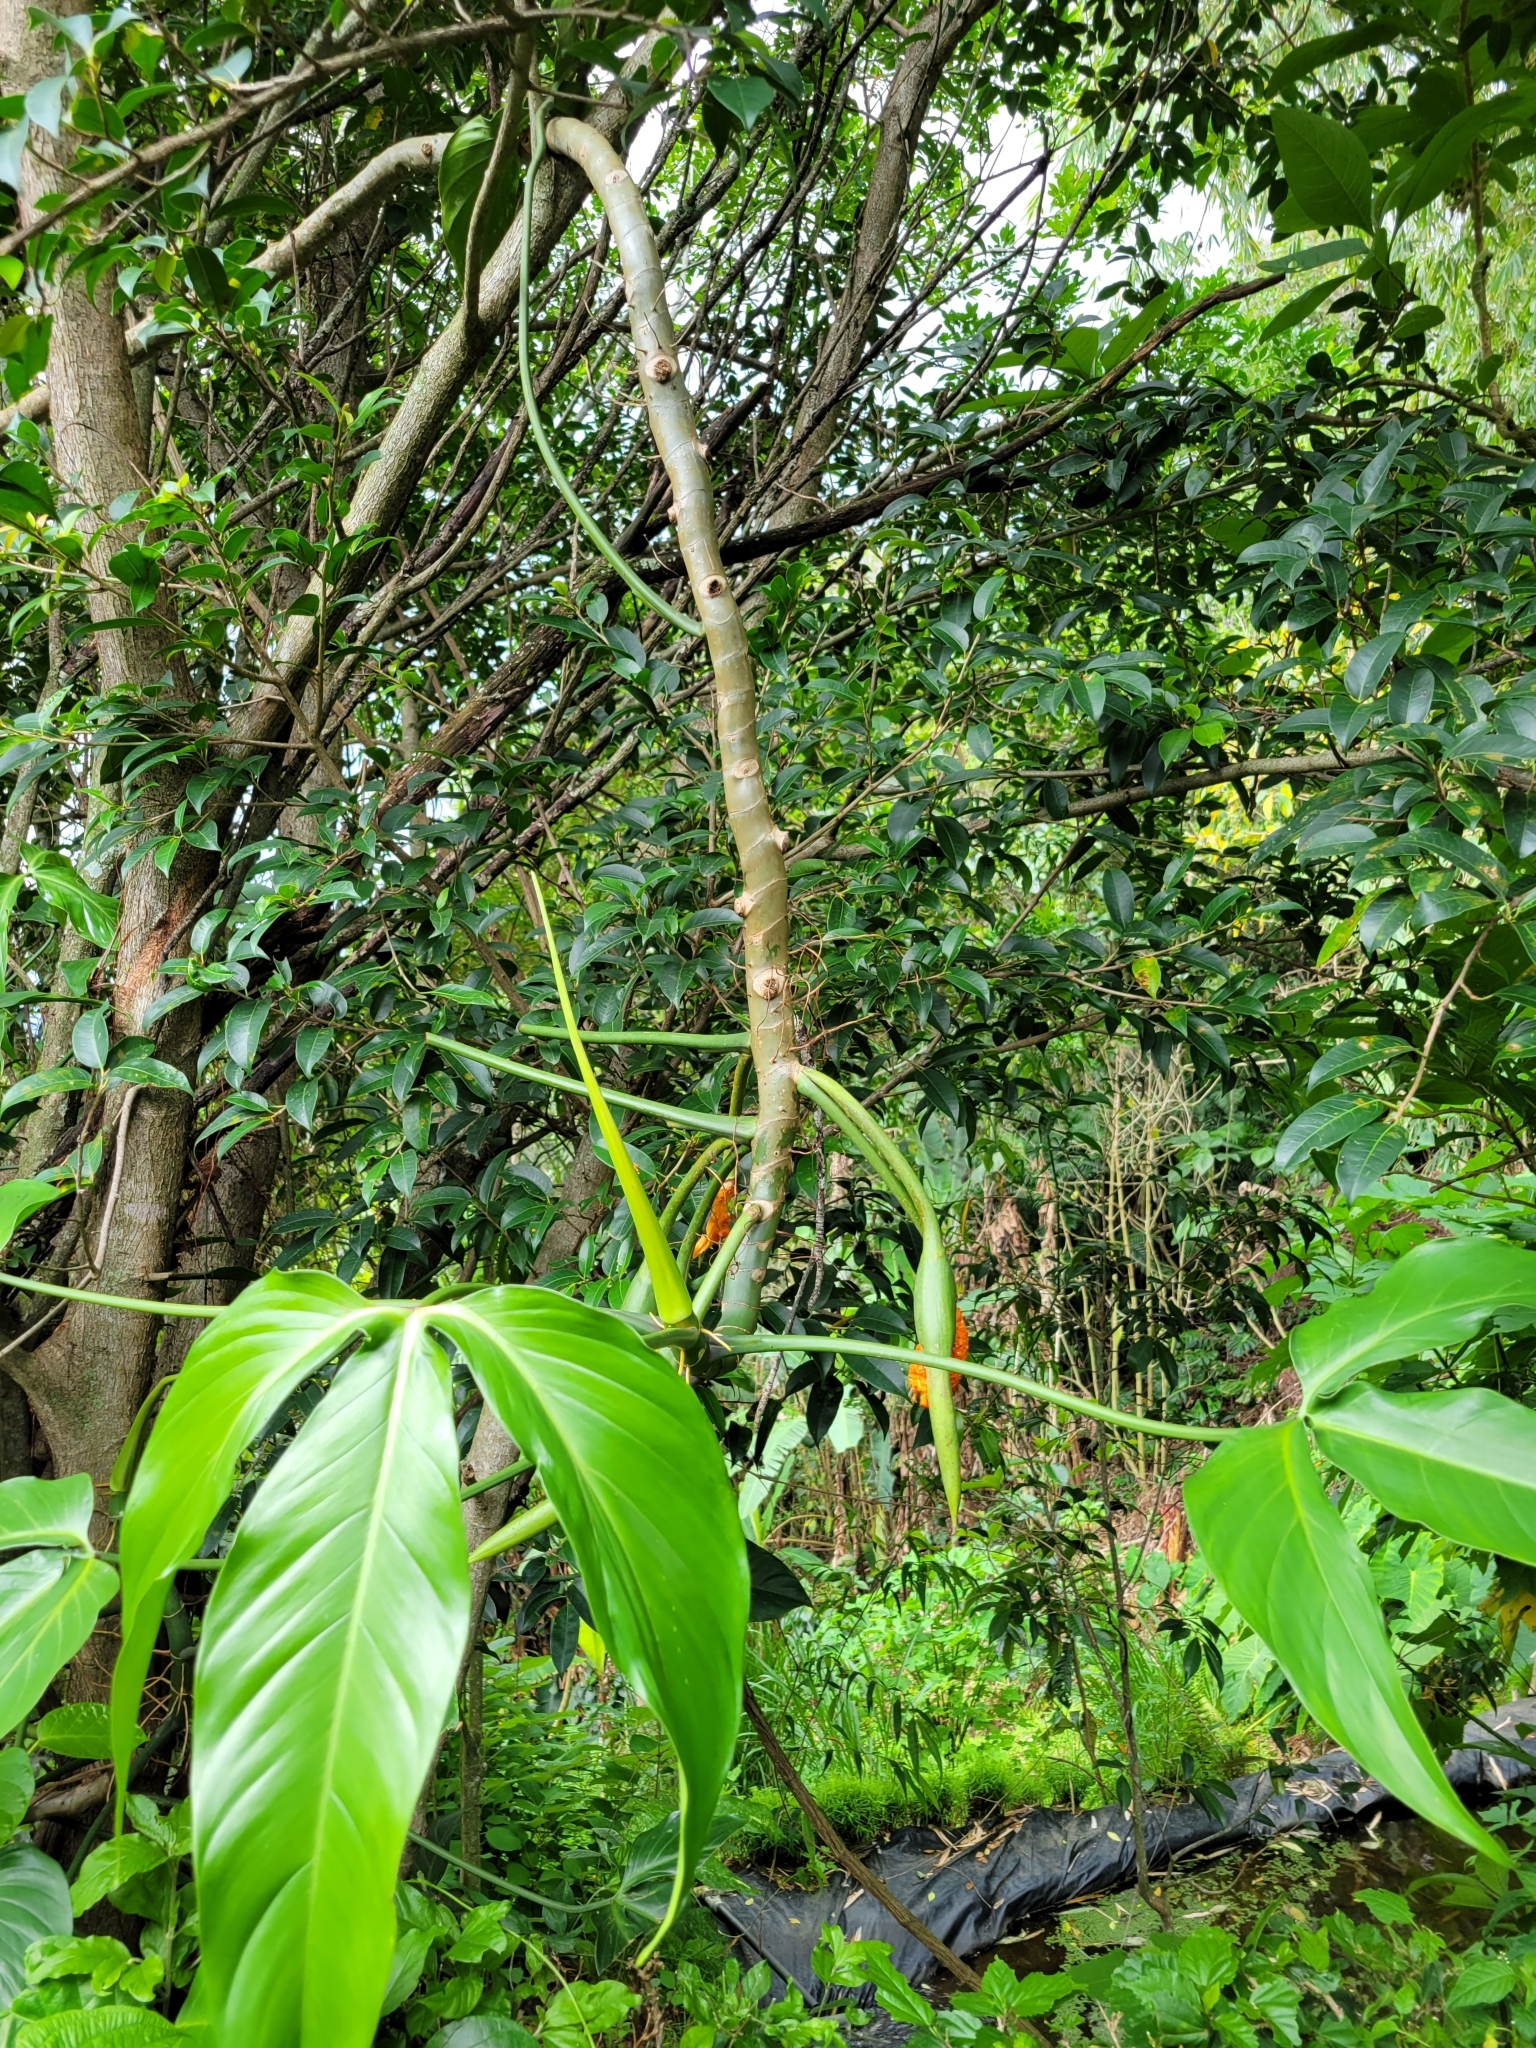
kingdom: Plantae
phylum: Tracheophyta
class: Liliopsida
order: Alismatales
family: Araceae
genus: Philodendron
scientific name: Philodendron anisotomum
